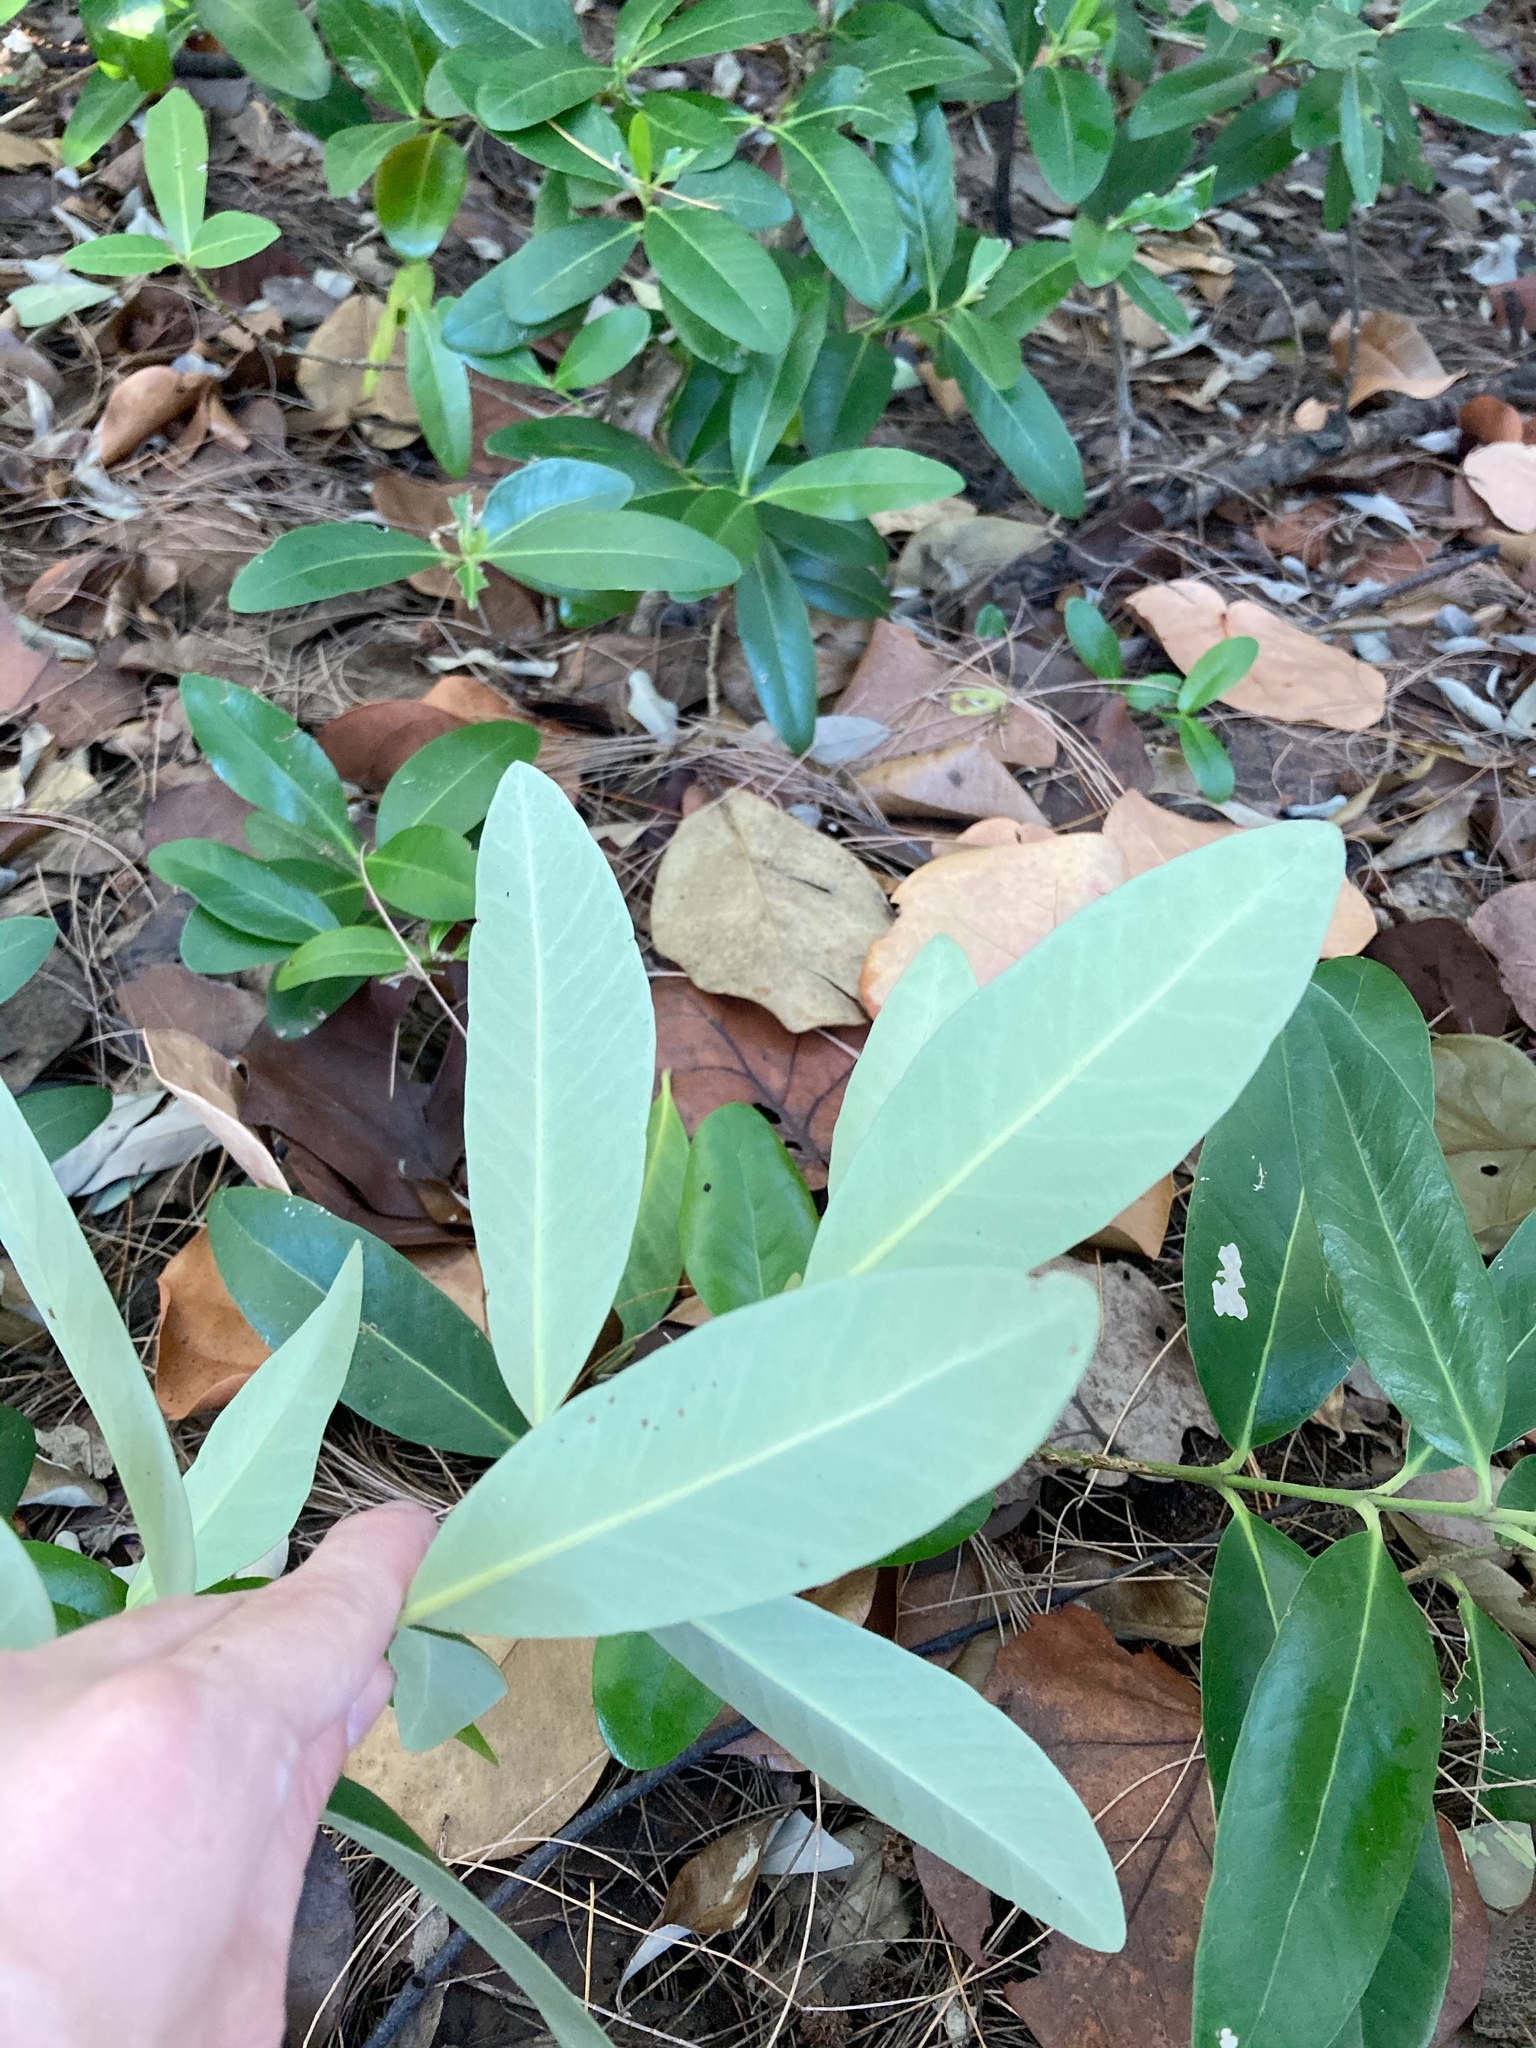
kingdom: Plantae
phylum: Tracheophyta
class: Magnoliopsida
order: Lamiales
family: Acanthaceae
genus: Avicennia
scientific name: Avicennia germinans
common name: Black mangrove
